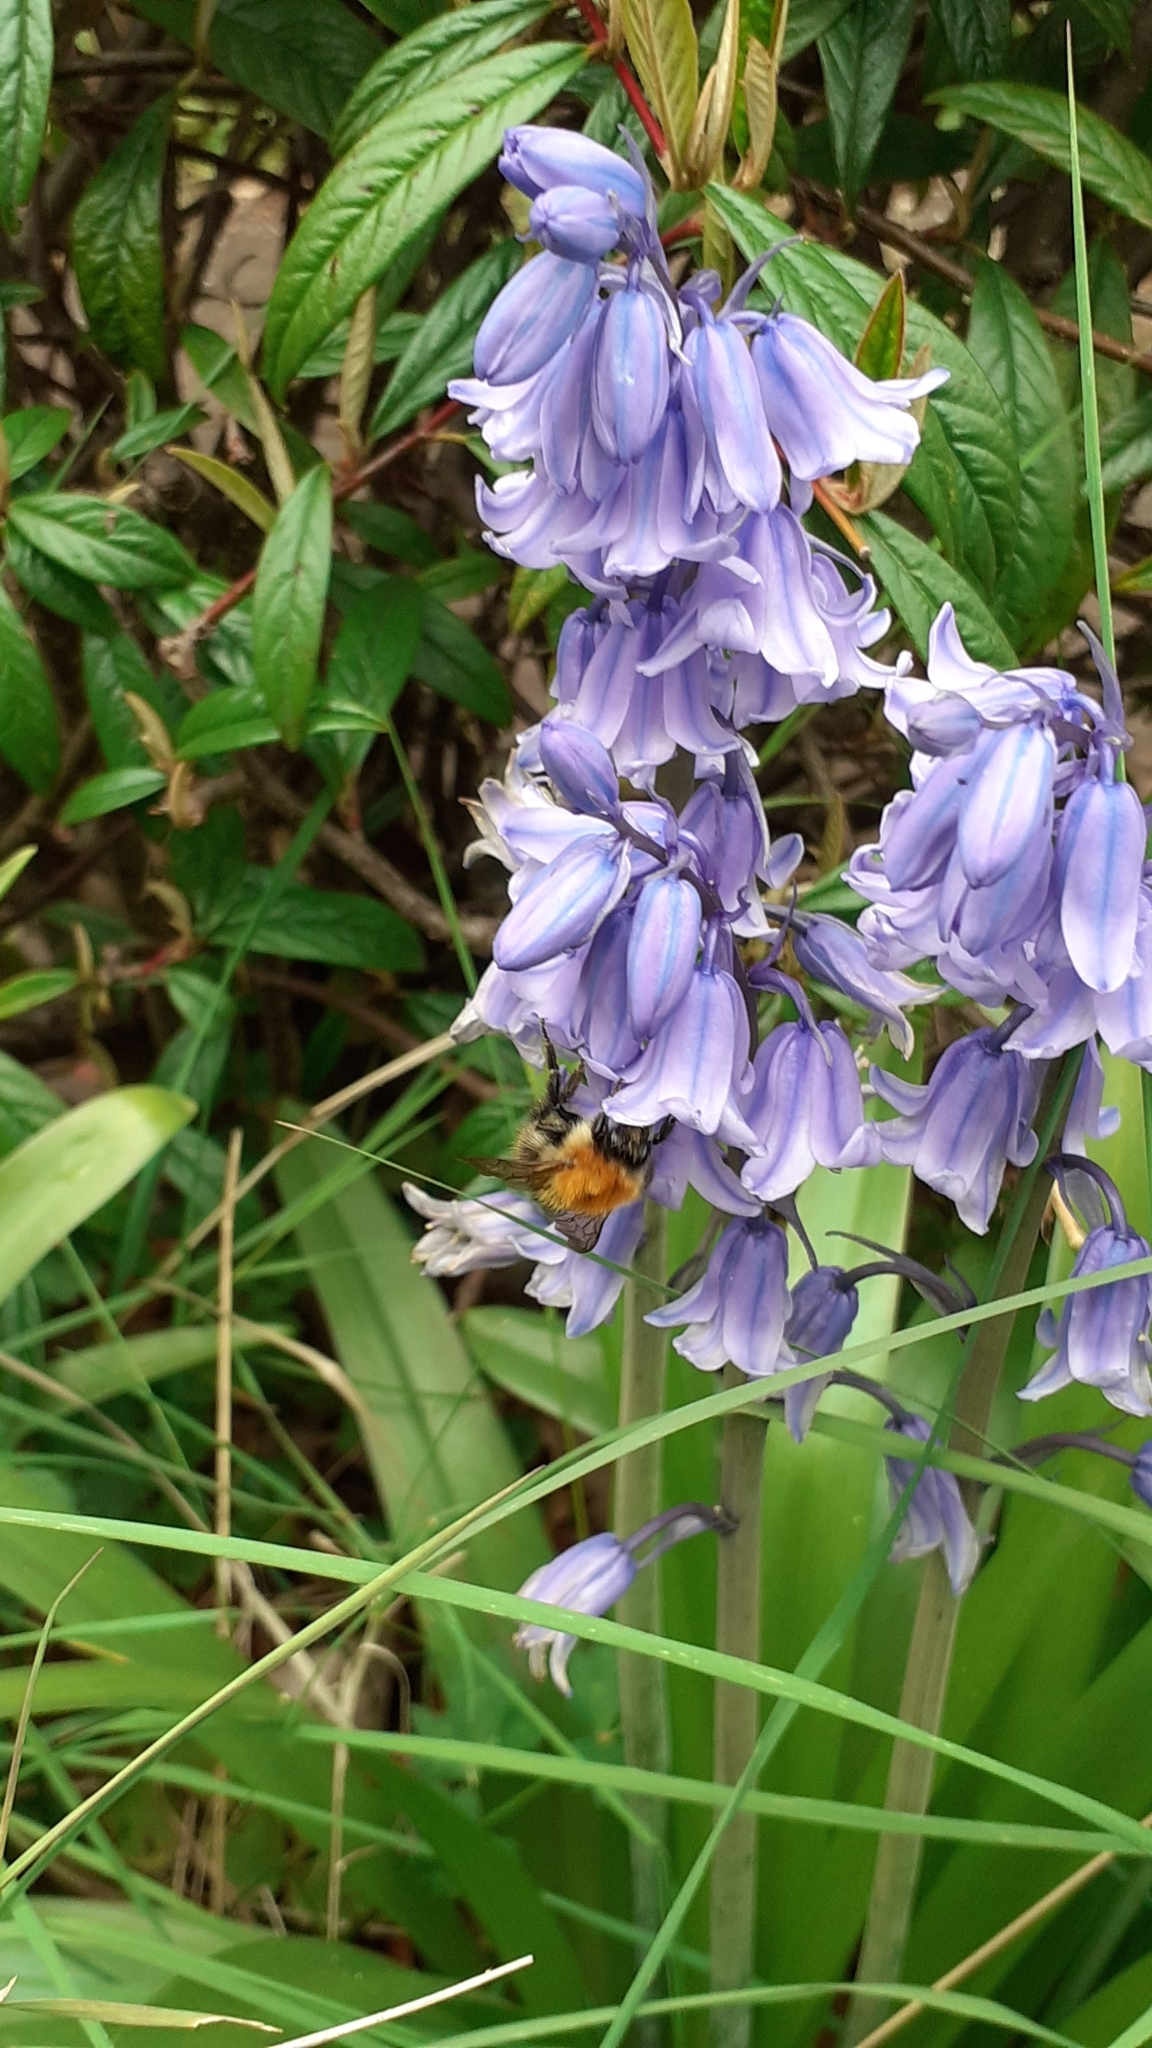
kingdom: Animalia
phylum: Arthropoda
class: Insecta
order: Hymenoptera
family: Apidae
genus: Bombus
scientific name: Bombus pascuorum
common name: Common carder bee
